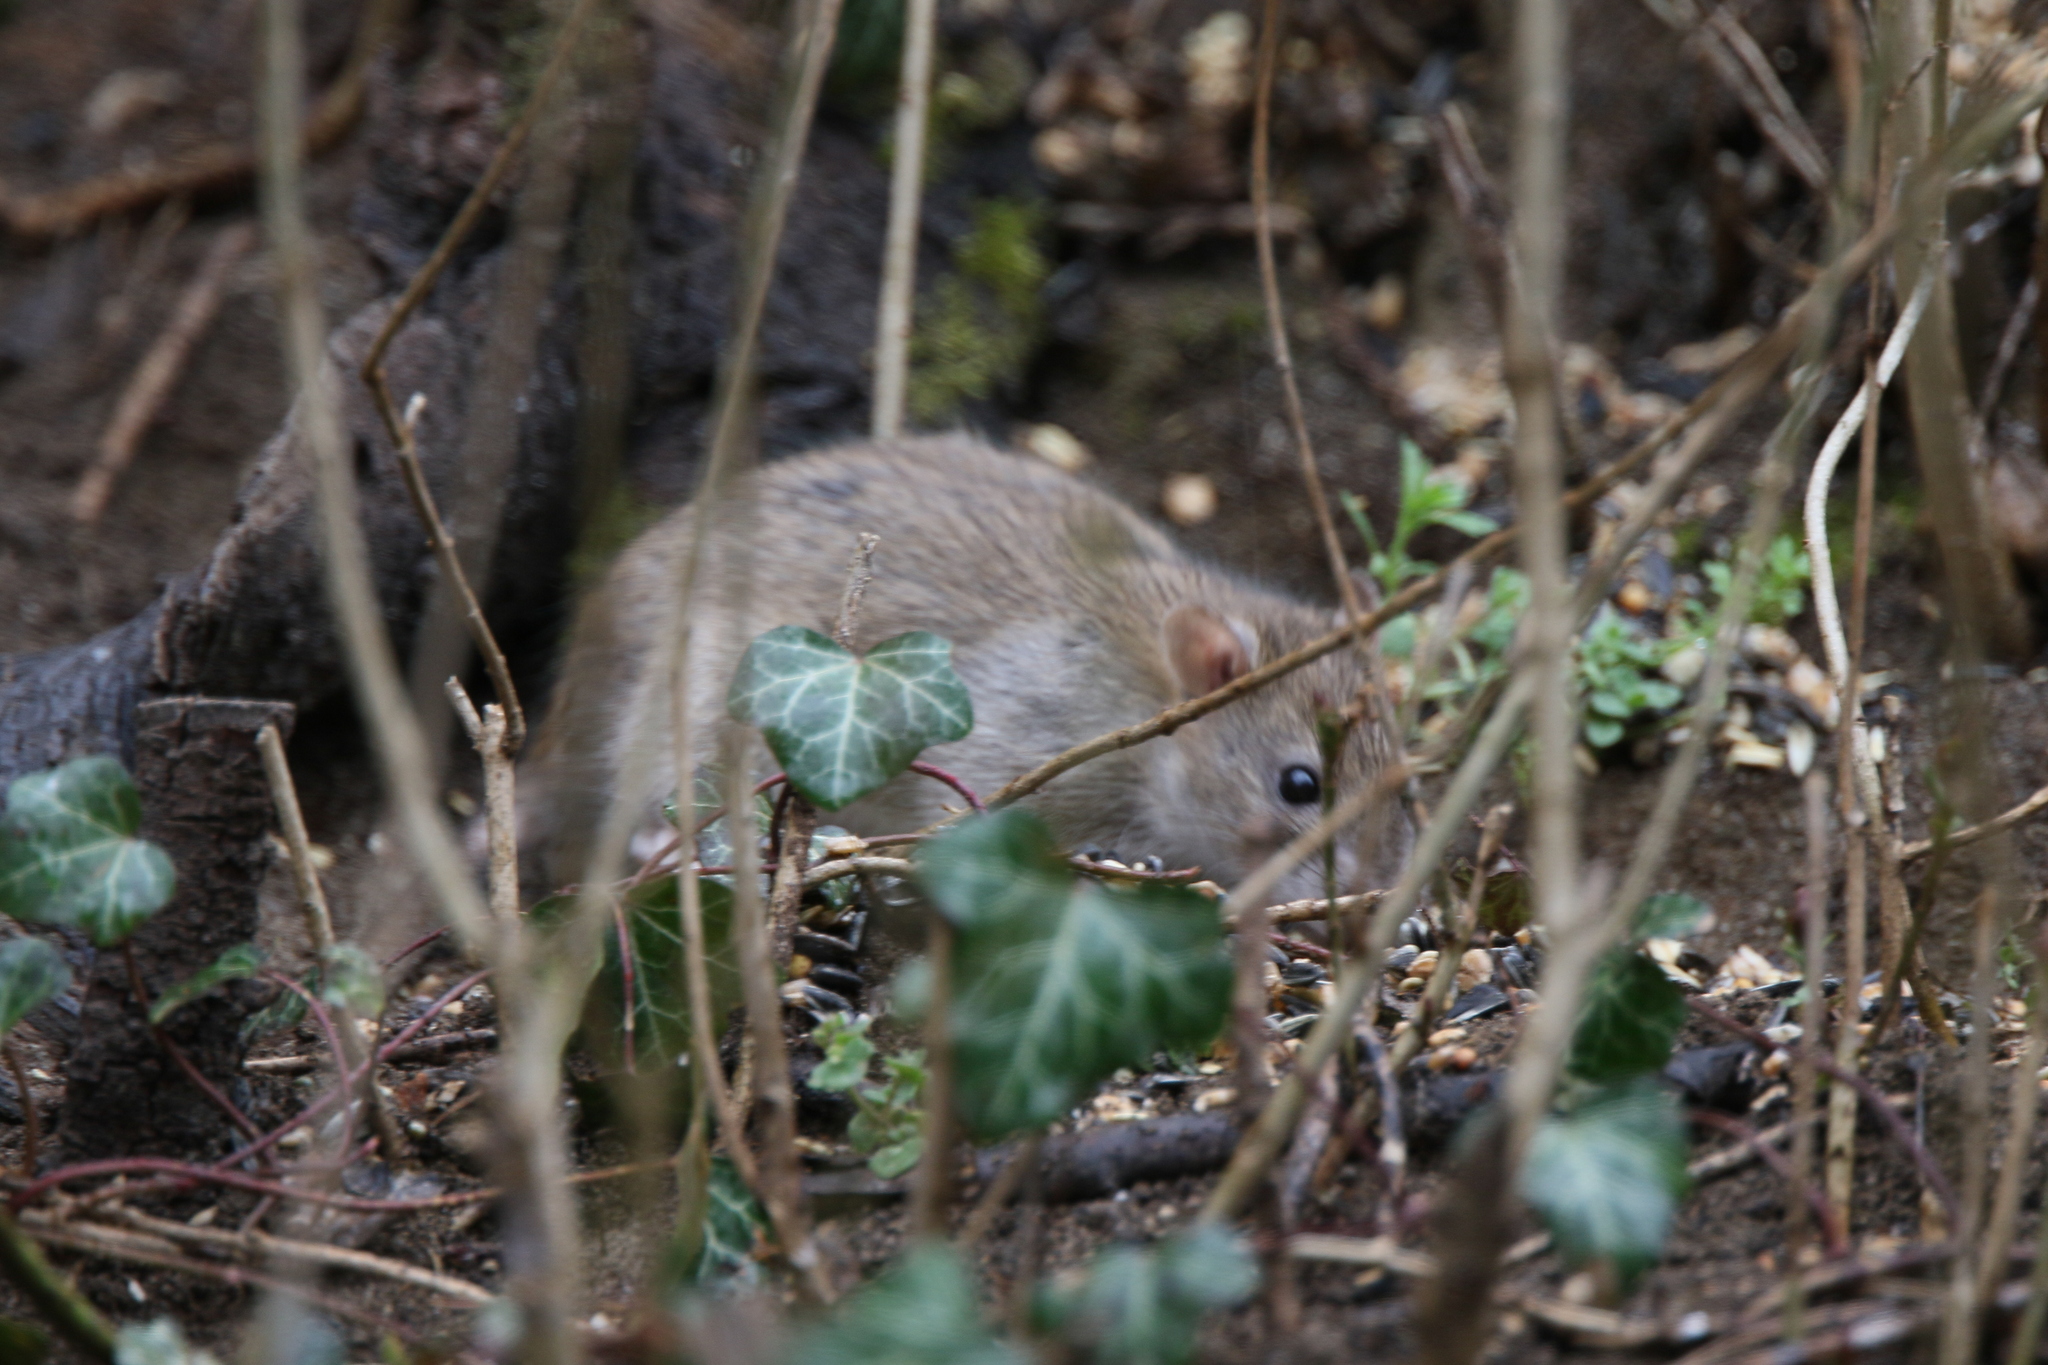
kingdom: Animalia
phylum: Chordata
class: Mammalia
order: Rodentia
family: Muridae
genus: Rattus
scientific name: Rattus norvegicus
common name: Brown rat
